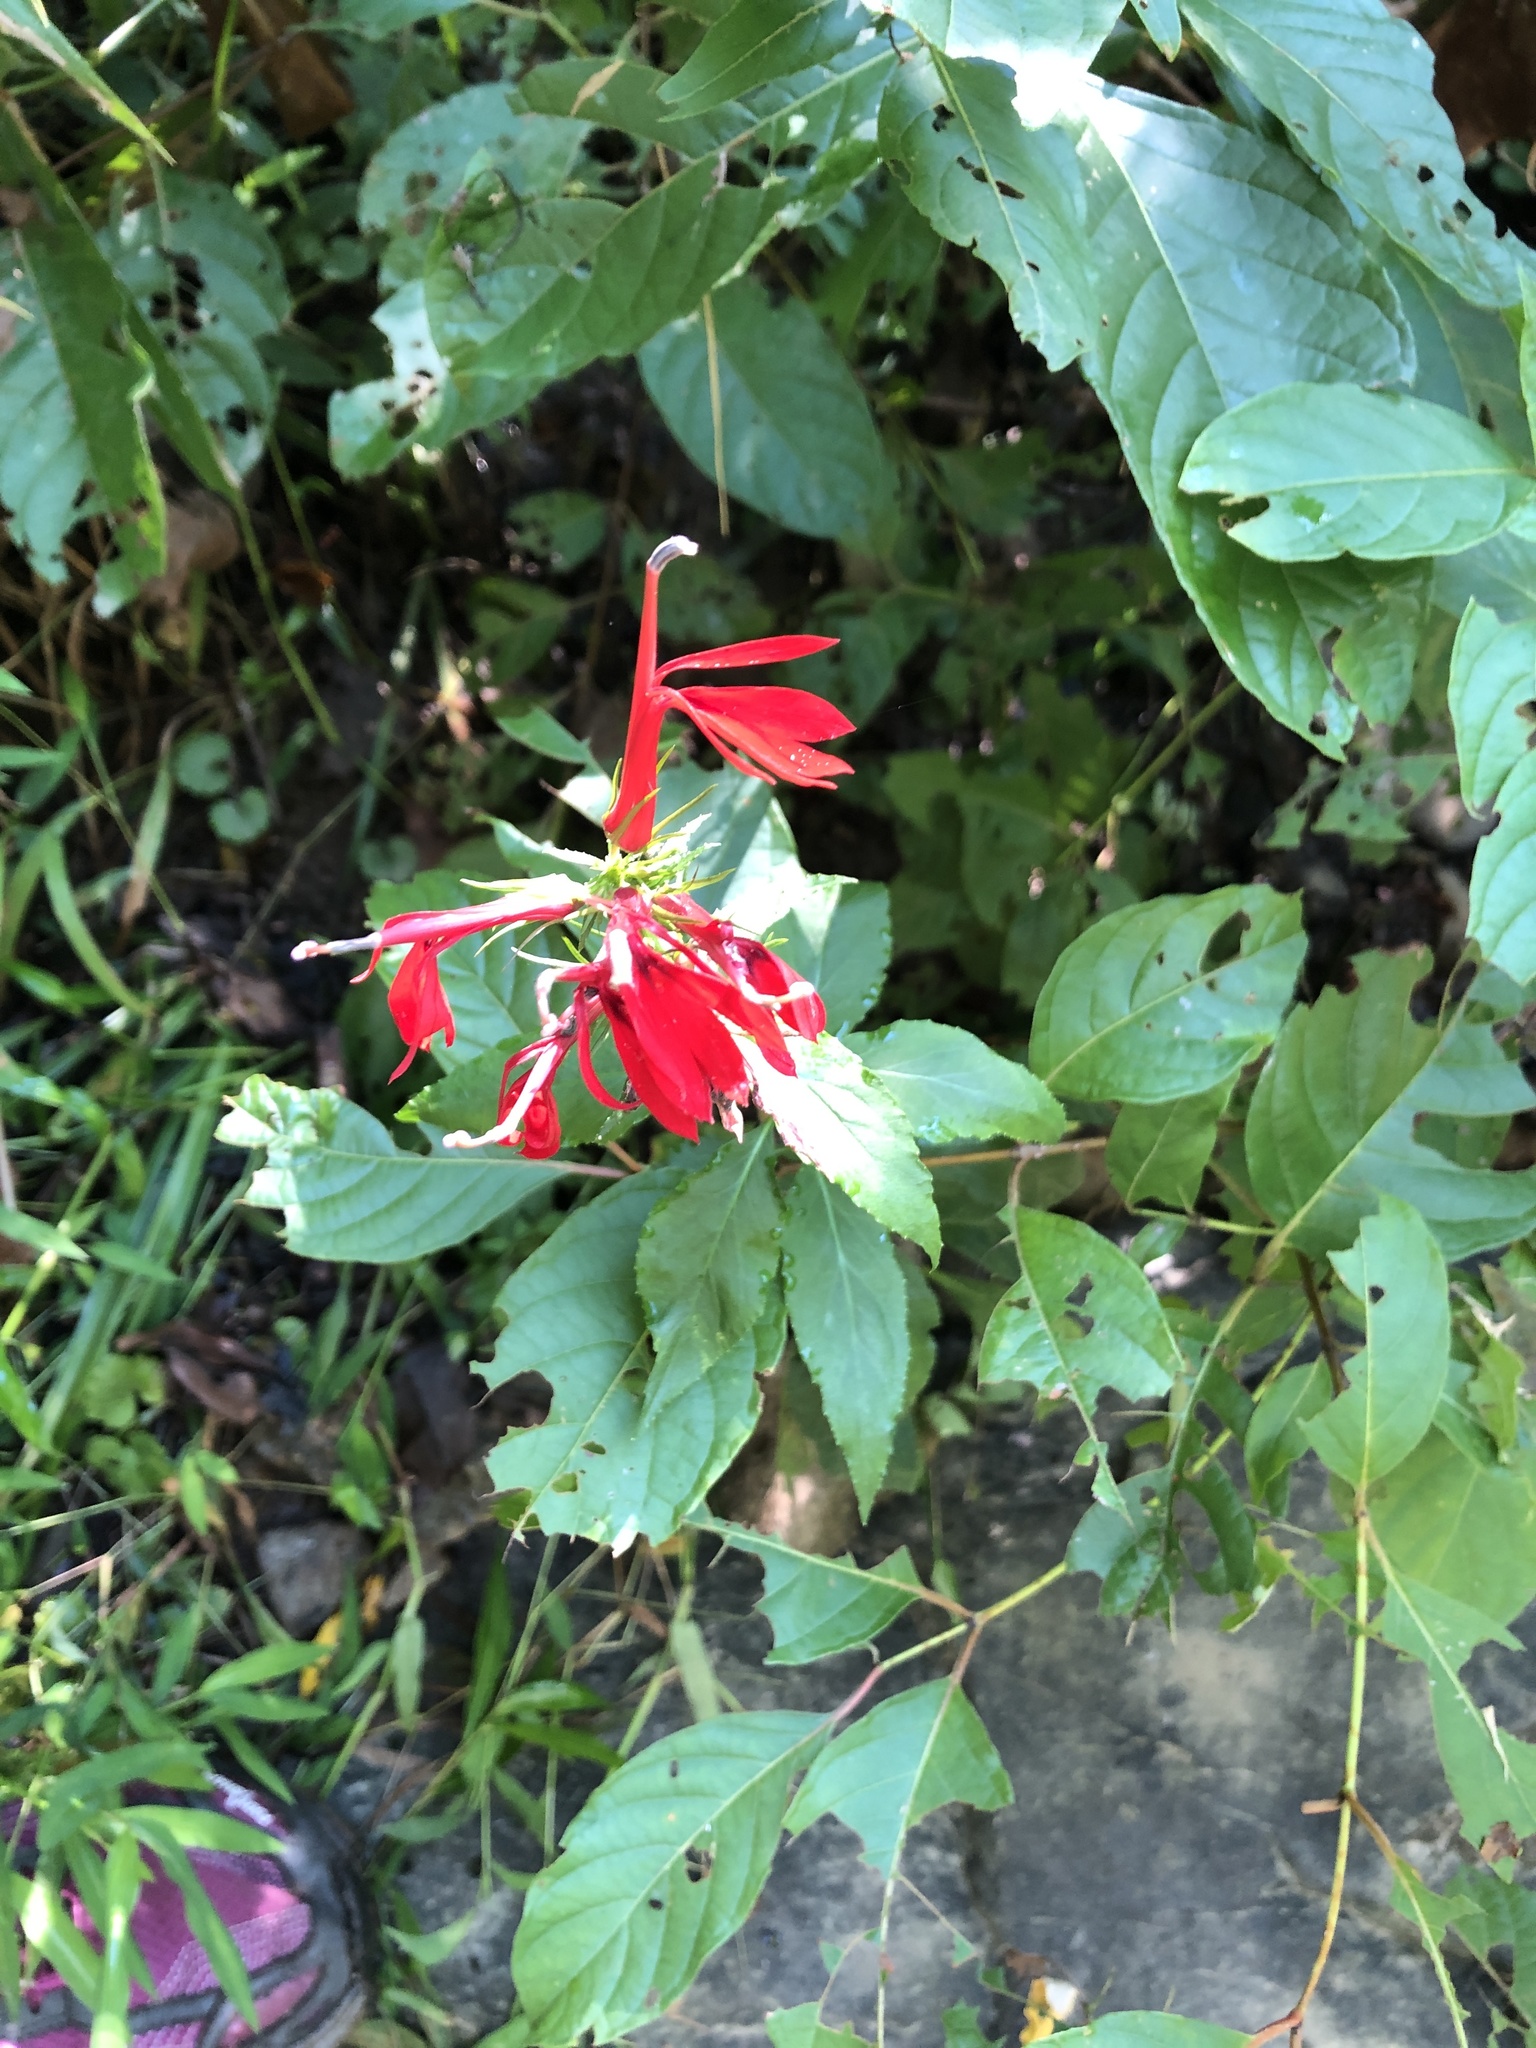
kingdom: Plantae
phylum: Tracheophyta
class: Magnoliopsida
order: Asterales
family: Campanulaceae
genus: Lobelia
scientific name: Lobelia cardinalis
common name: Cardinal flower
